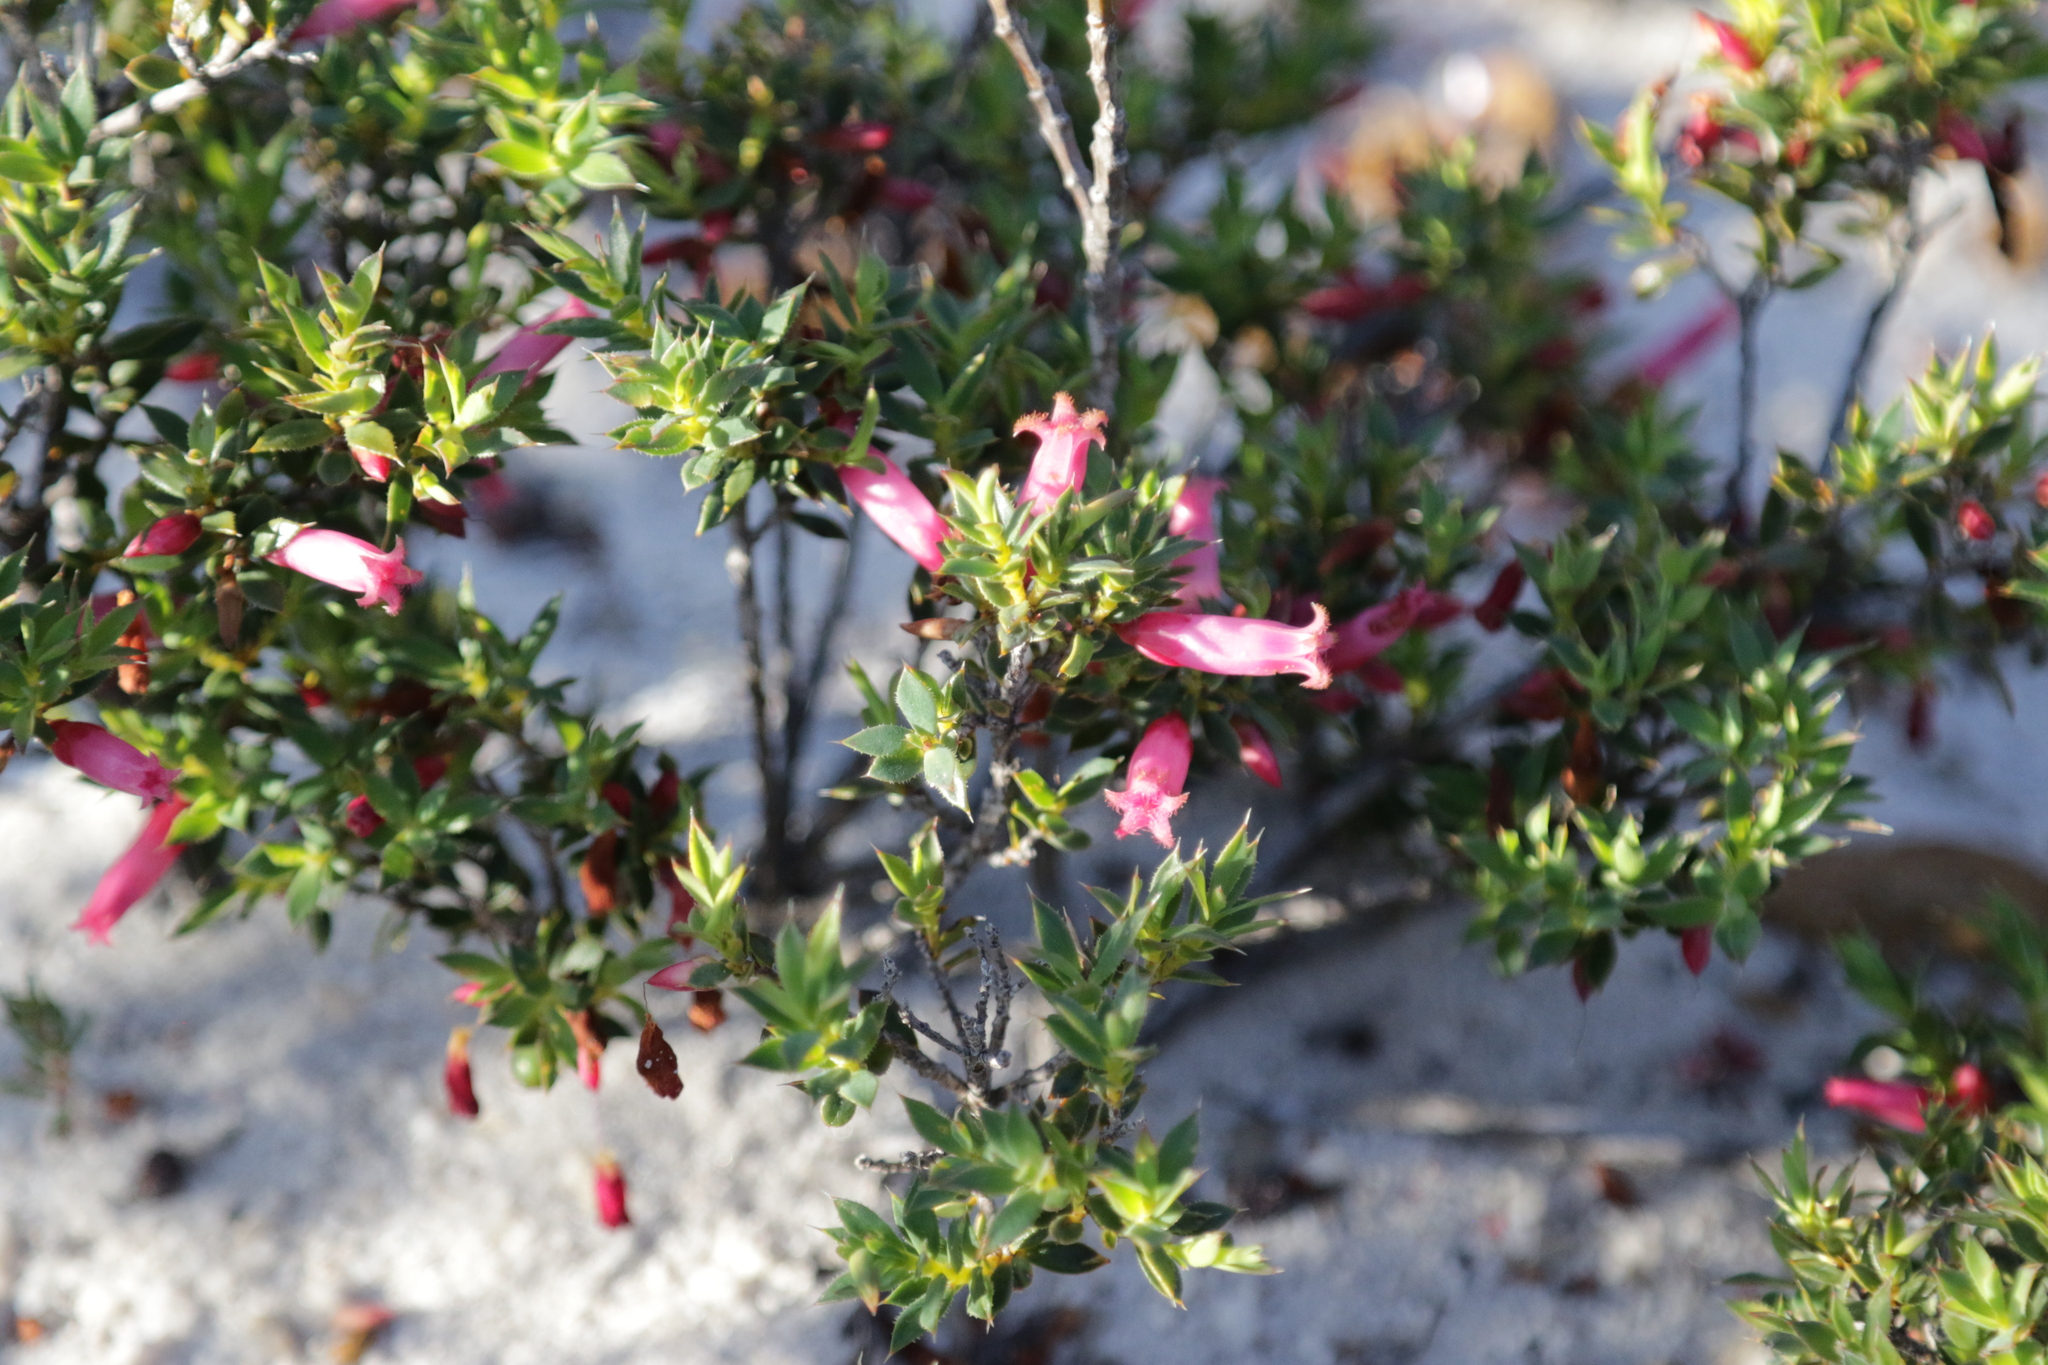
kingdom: Plantae
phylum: Tracheophyta
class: Magnoliopsida
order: Ericales
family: Ericaceae
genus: Styphelia
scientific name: Styphelia microdonta
